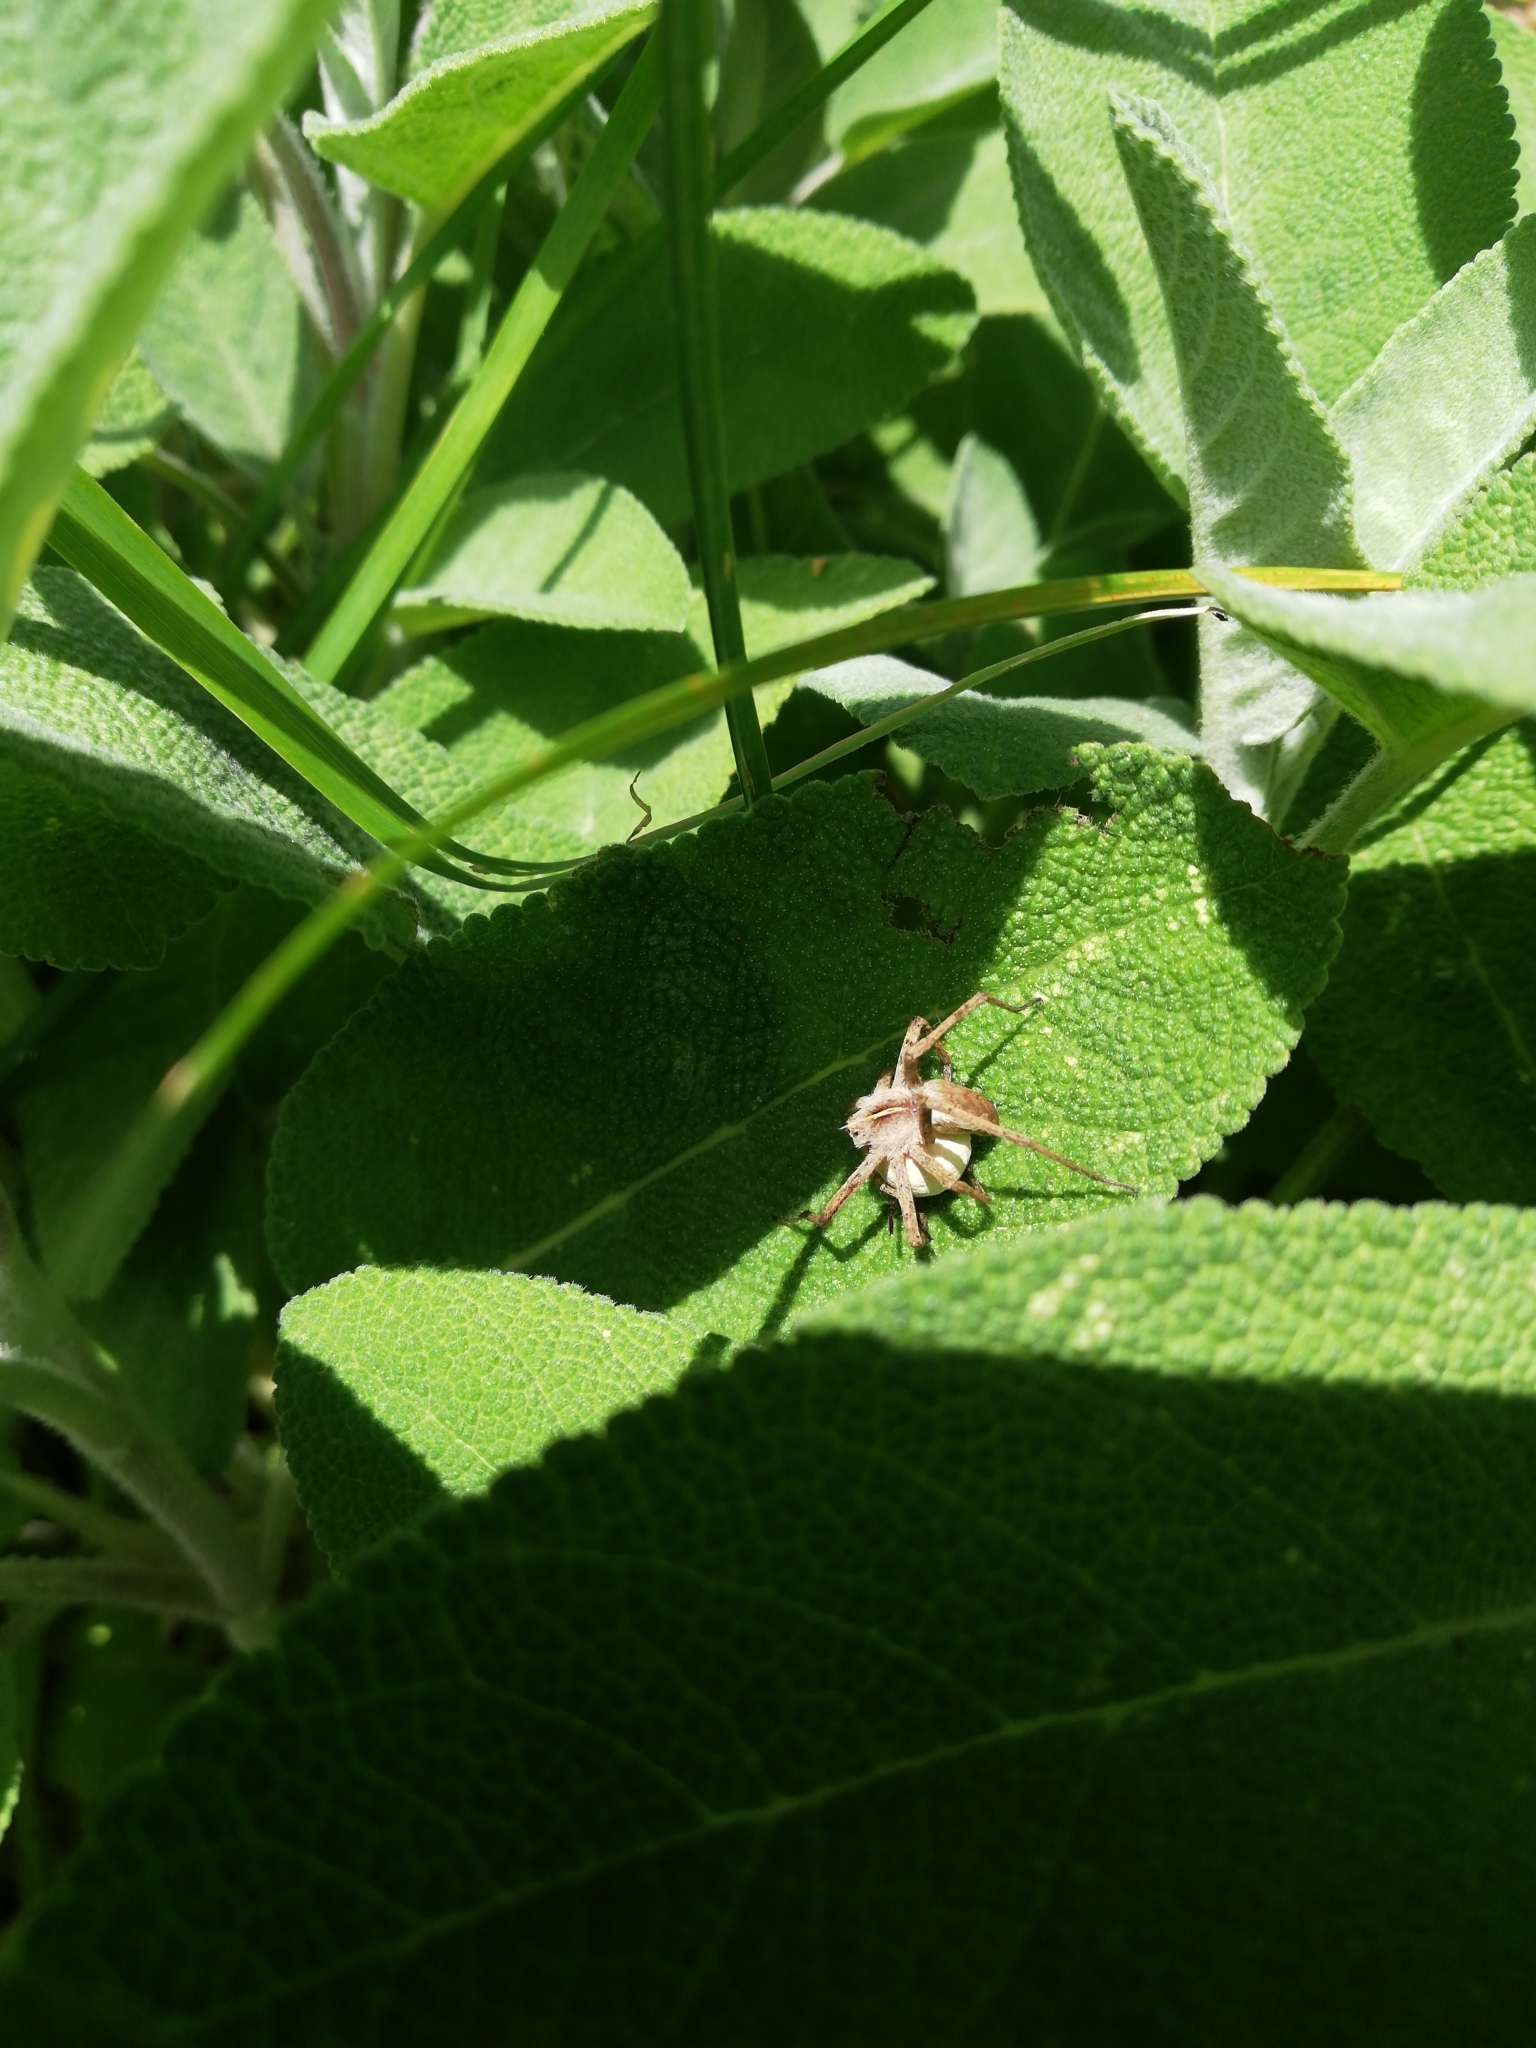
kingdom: Animalia
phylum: Arthropoda
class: Arachnida
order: Araneae
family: Pisauridae
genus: Pisaura
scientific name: Pisaura mirabilis
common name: Tent spider
